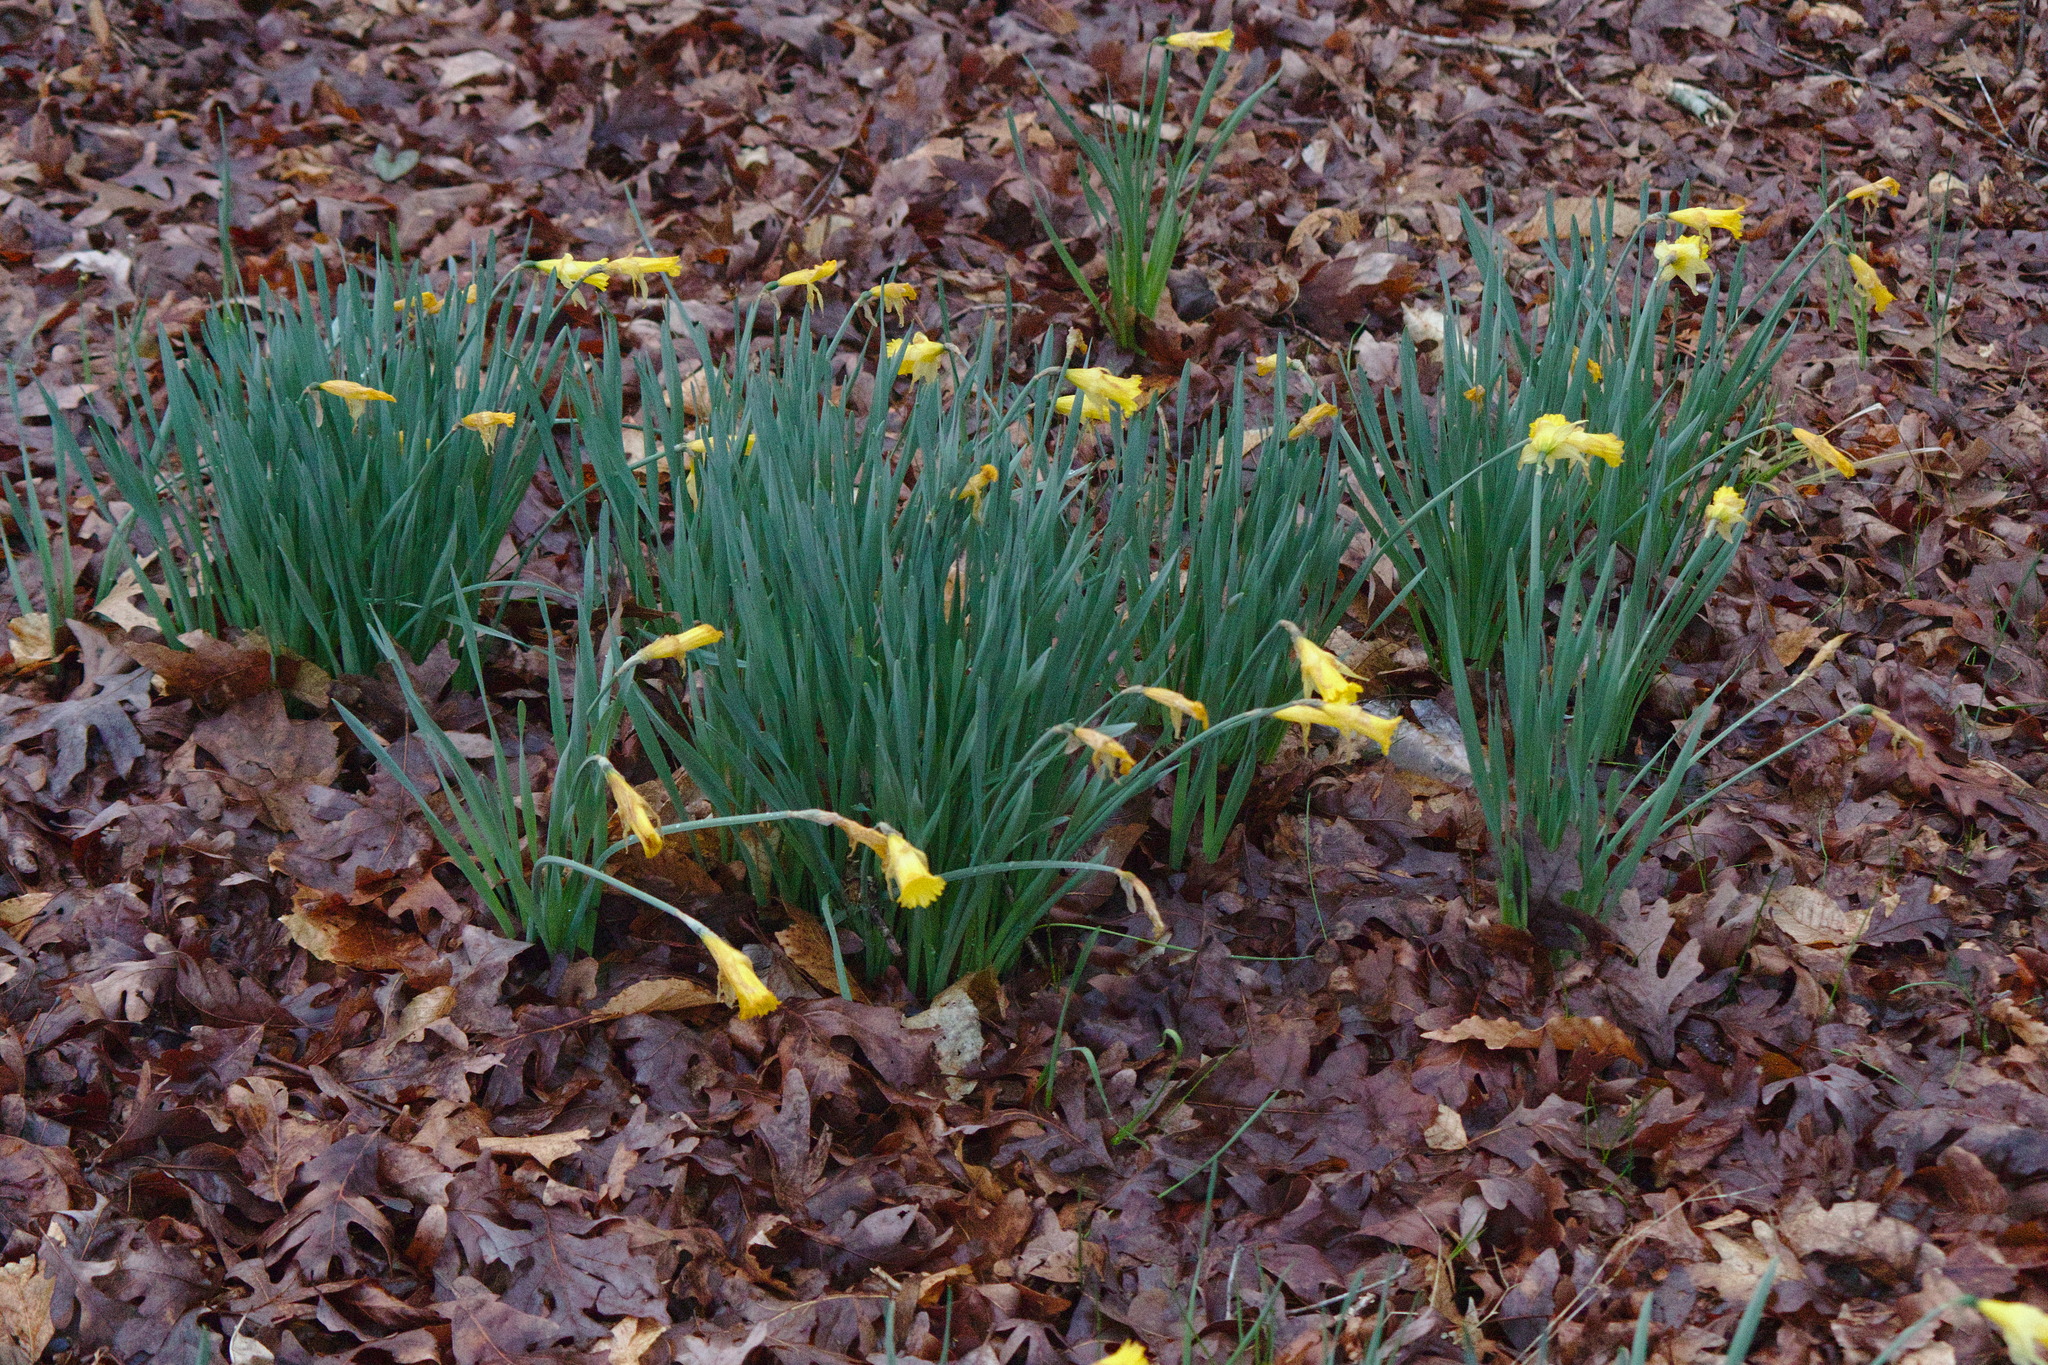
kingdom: Plantae
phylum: Tracheophyta
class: Liliopsida
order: Asparagales
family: Amaryllidaceae
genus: Narcissus
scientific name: Narcissus pseudonarcissus
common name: Daffodil
